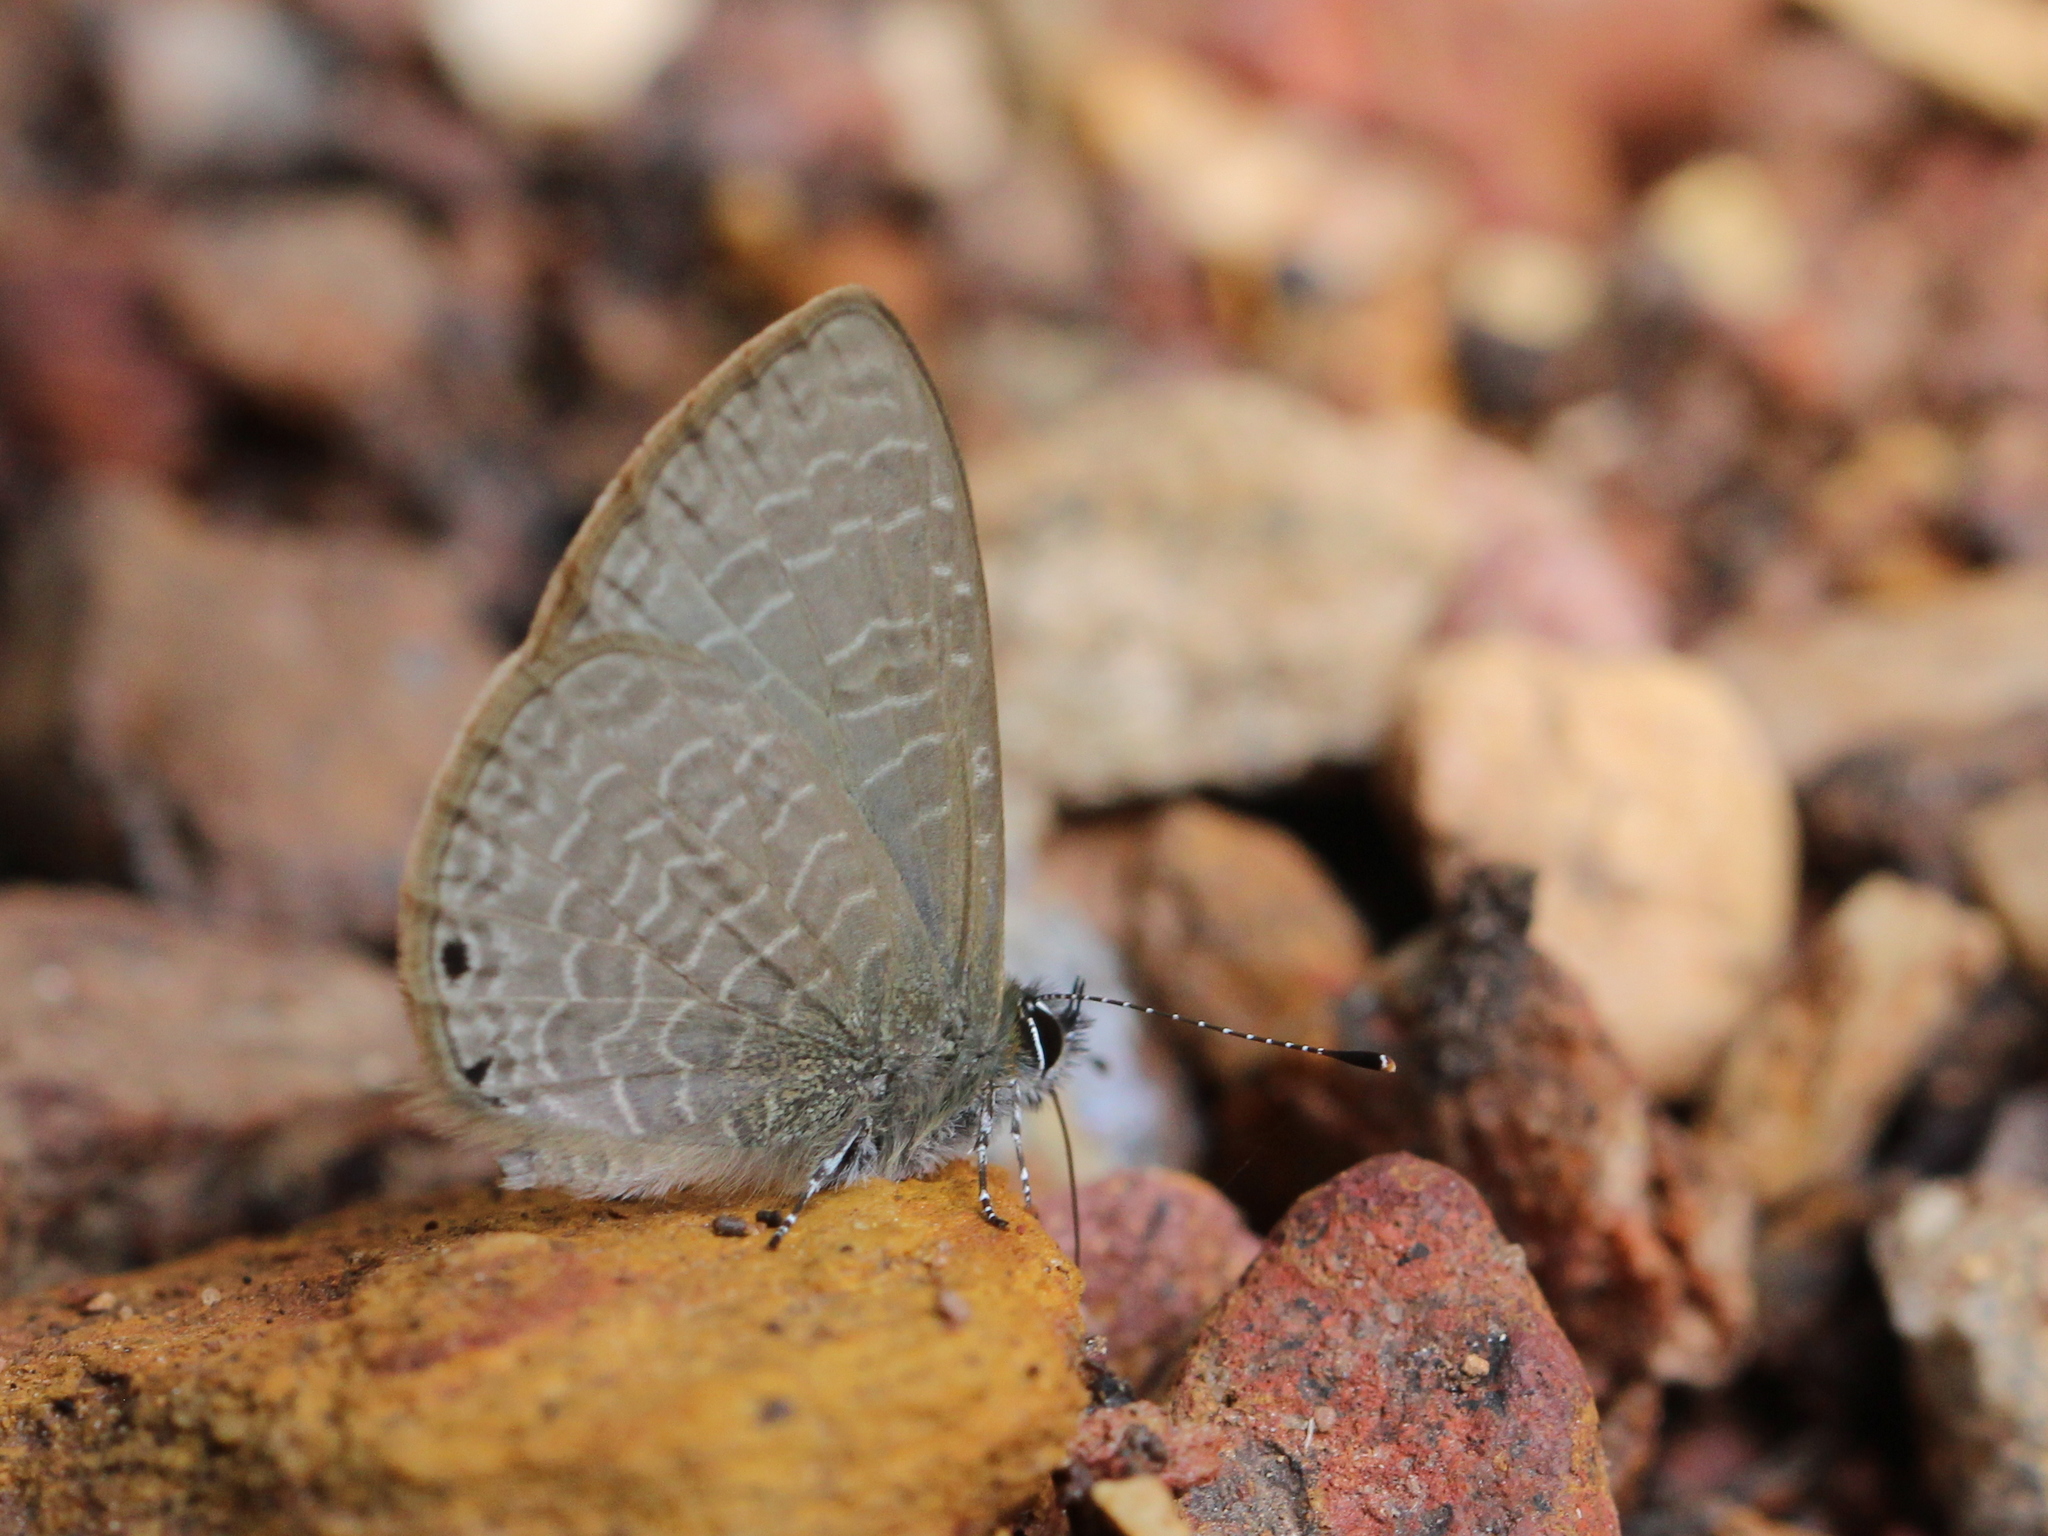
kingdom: Animalia
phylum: Arthropoda
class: Insecta
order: Lepidoptera
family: Lycaenidae
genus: Petrelaea
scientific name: Petrelaea dana
